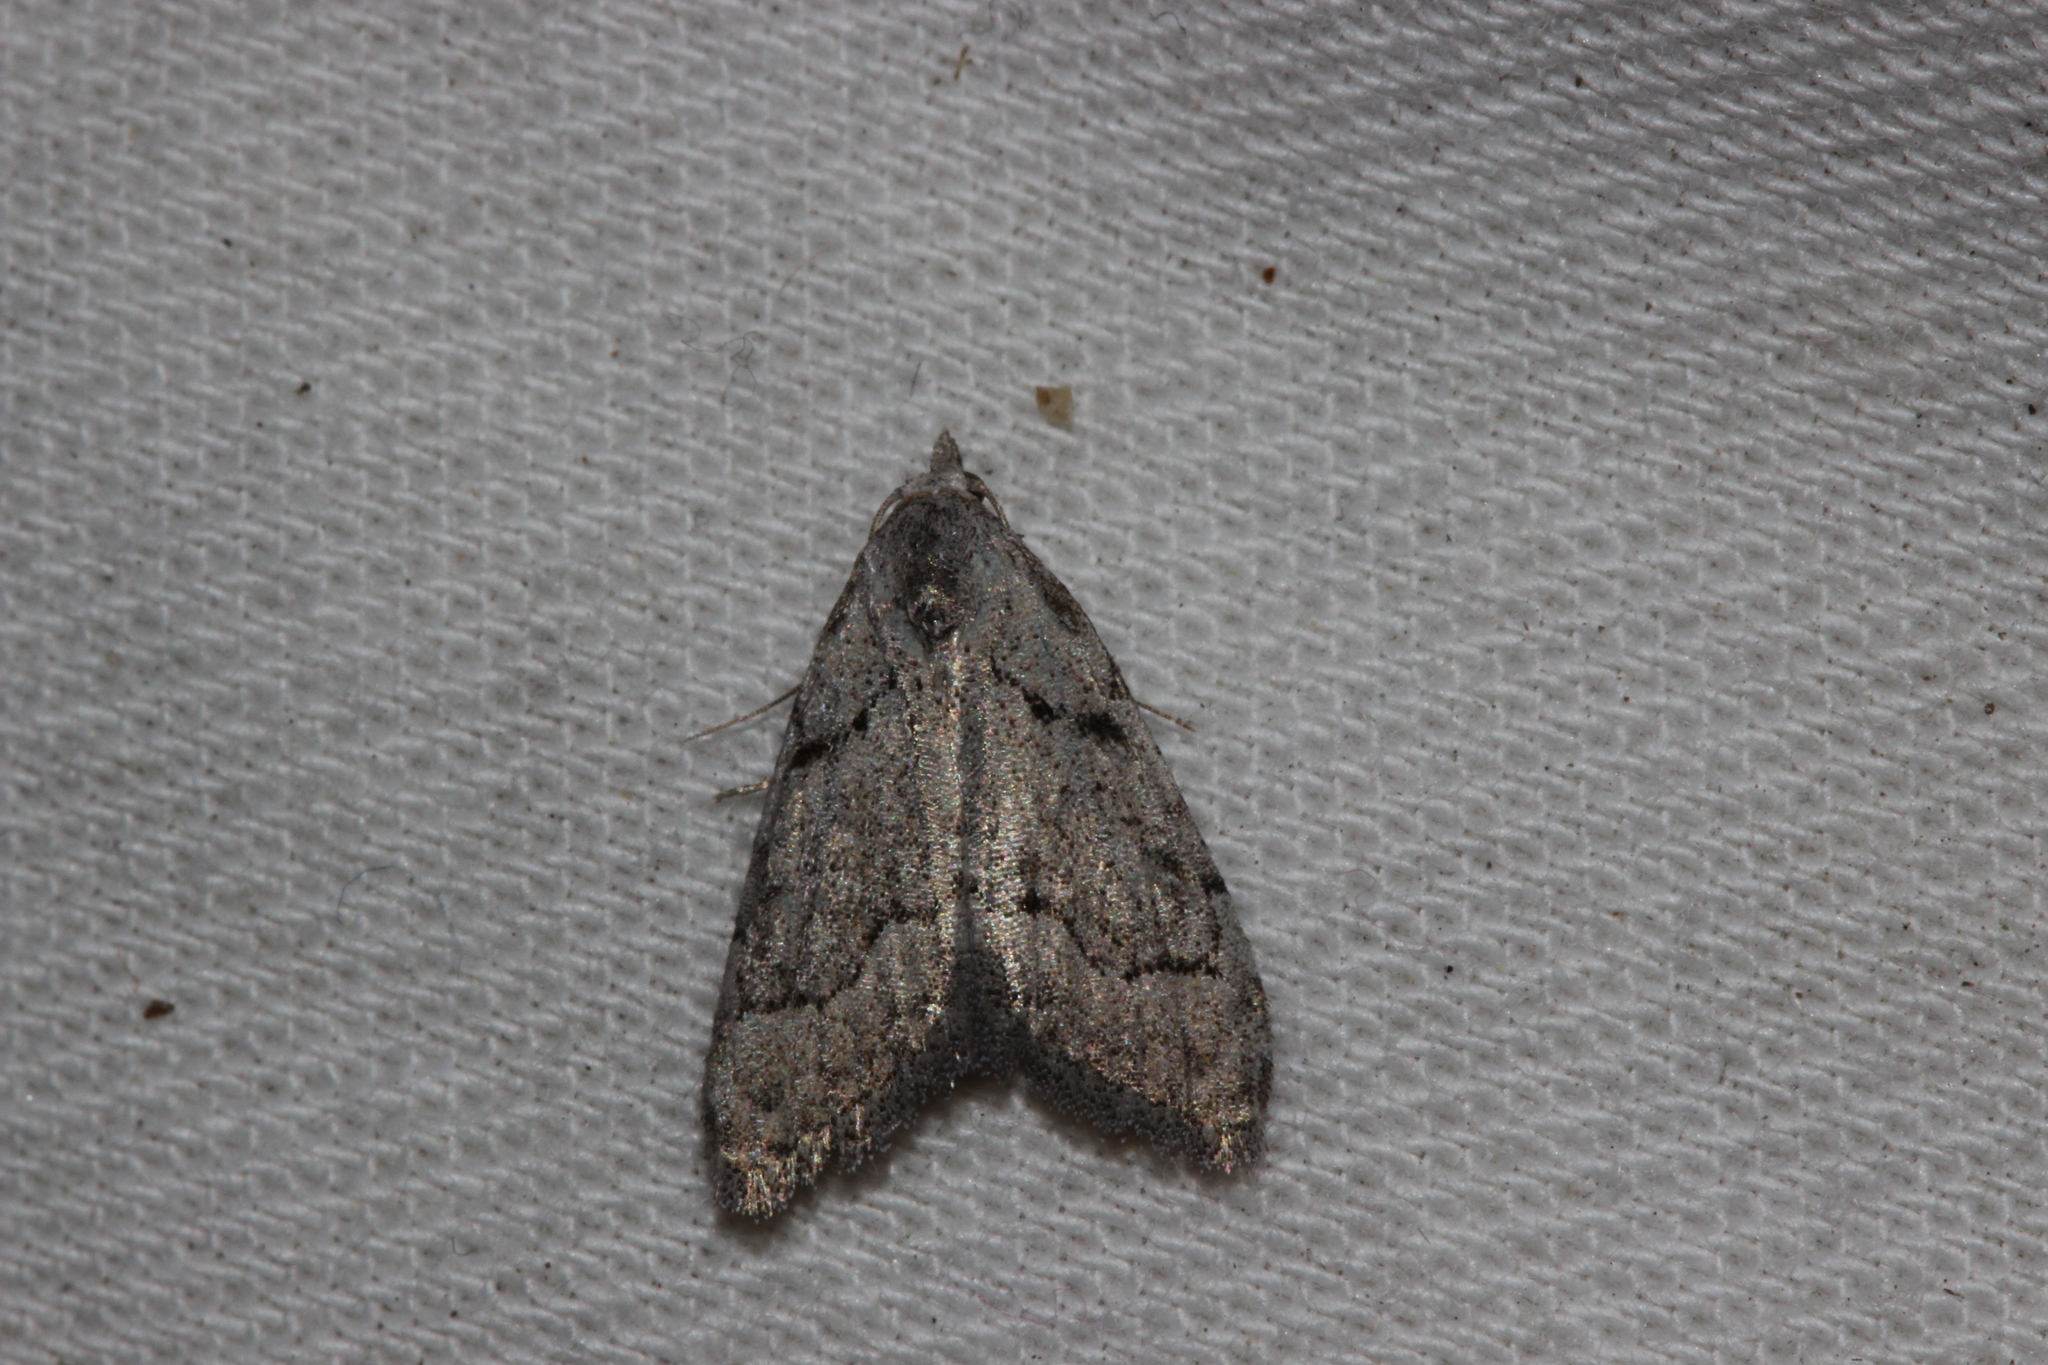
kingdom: Animalia
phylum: Arthropoda
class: Insecta
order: Lepidoptera
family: Nolidae
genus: Nola
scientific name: Nola thymula
